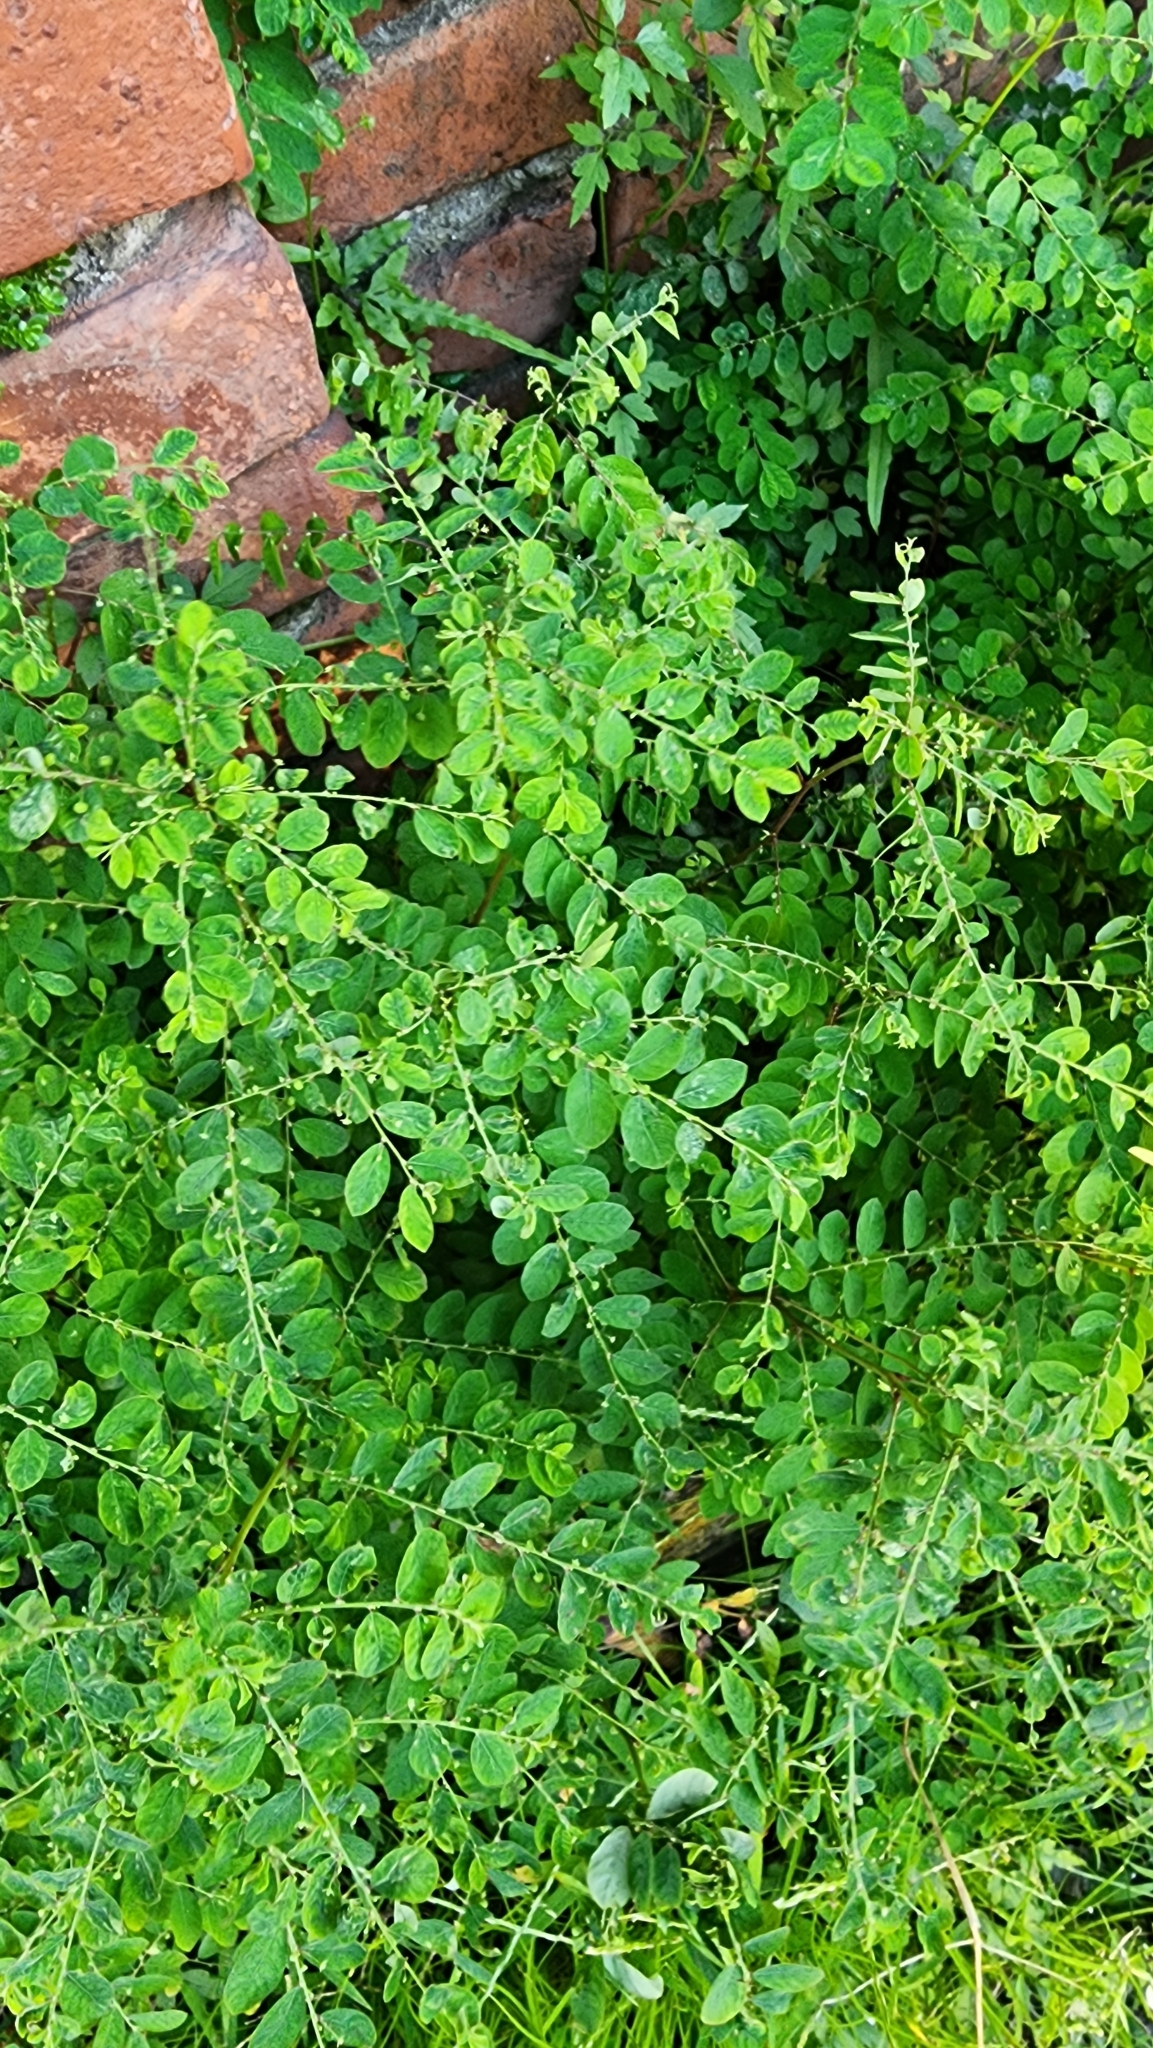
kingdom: Plantae
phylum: Tracheophyta
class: Magnoliopsida
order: Malpighiales
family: Phyllanthaceae
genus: Phyllanthus
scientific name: Phyllanthus tenellus
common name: Mascarene island leaf-flower
